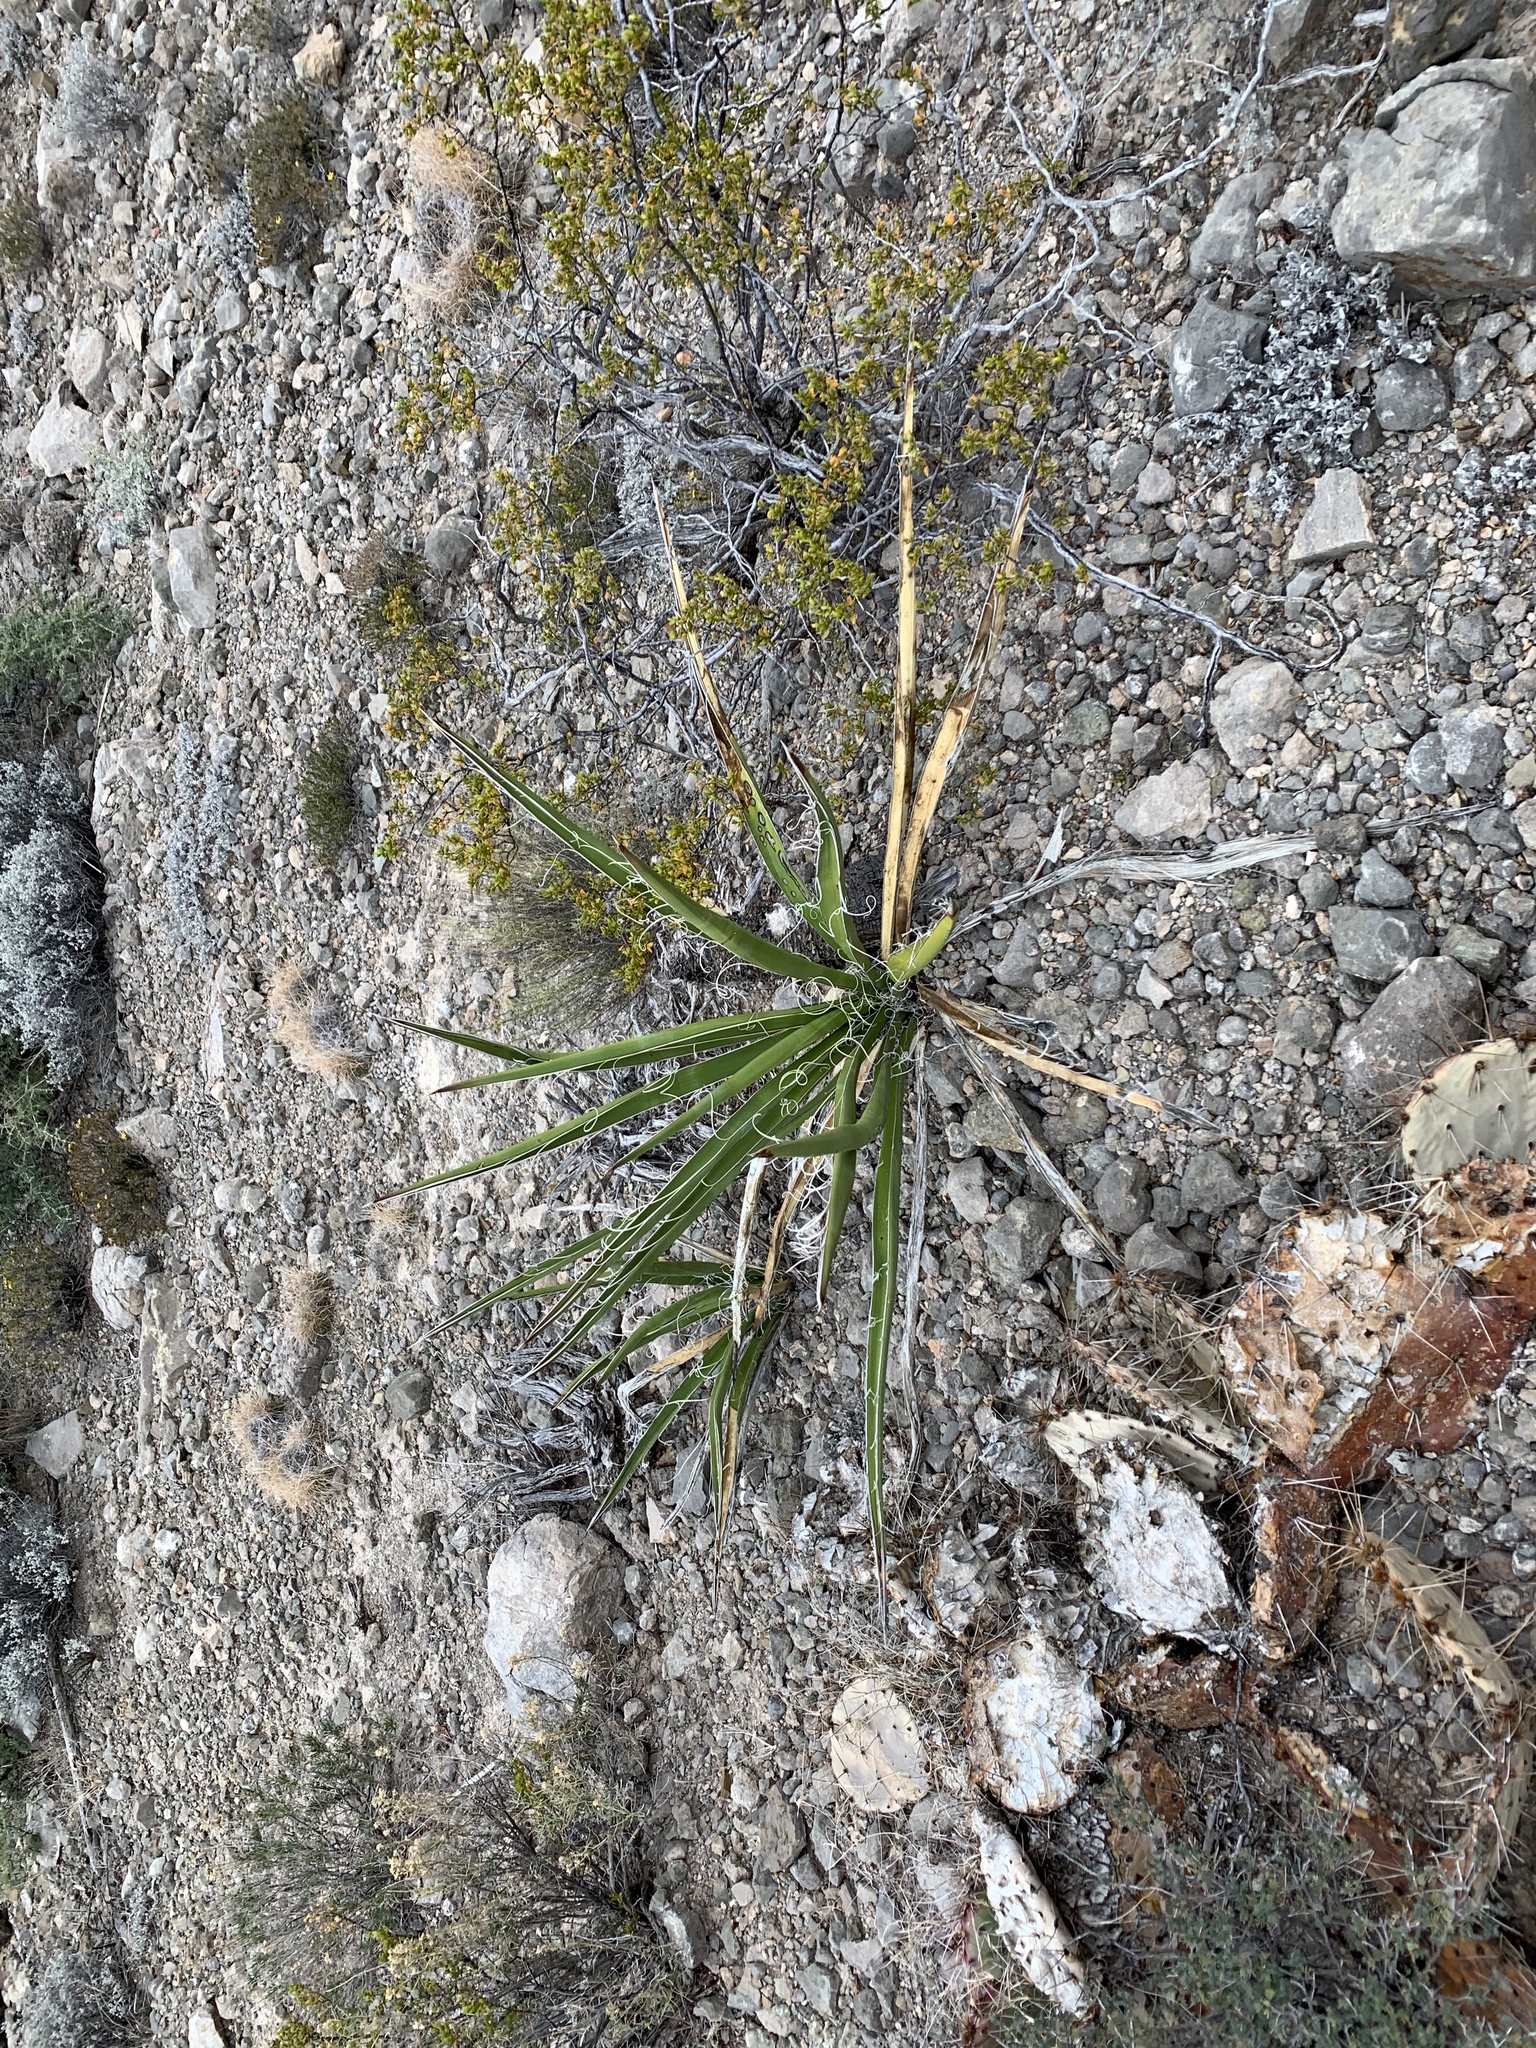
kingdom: Plantae
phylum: Tracheophyta
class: Liliopsida
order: Asparagales
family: Asparagaceae
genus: Yucca
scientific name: Yucca baccata
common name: Banana yucca
